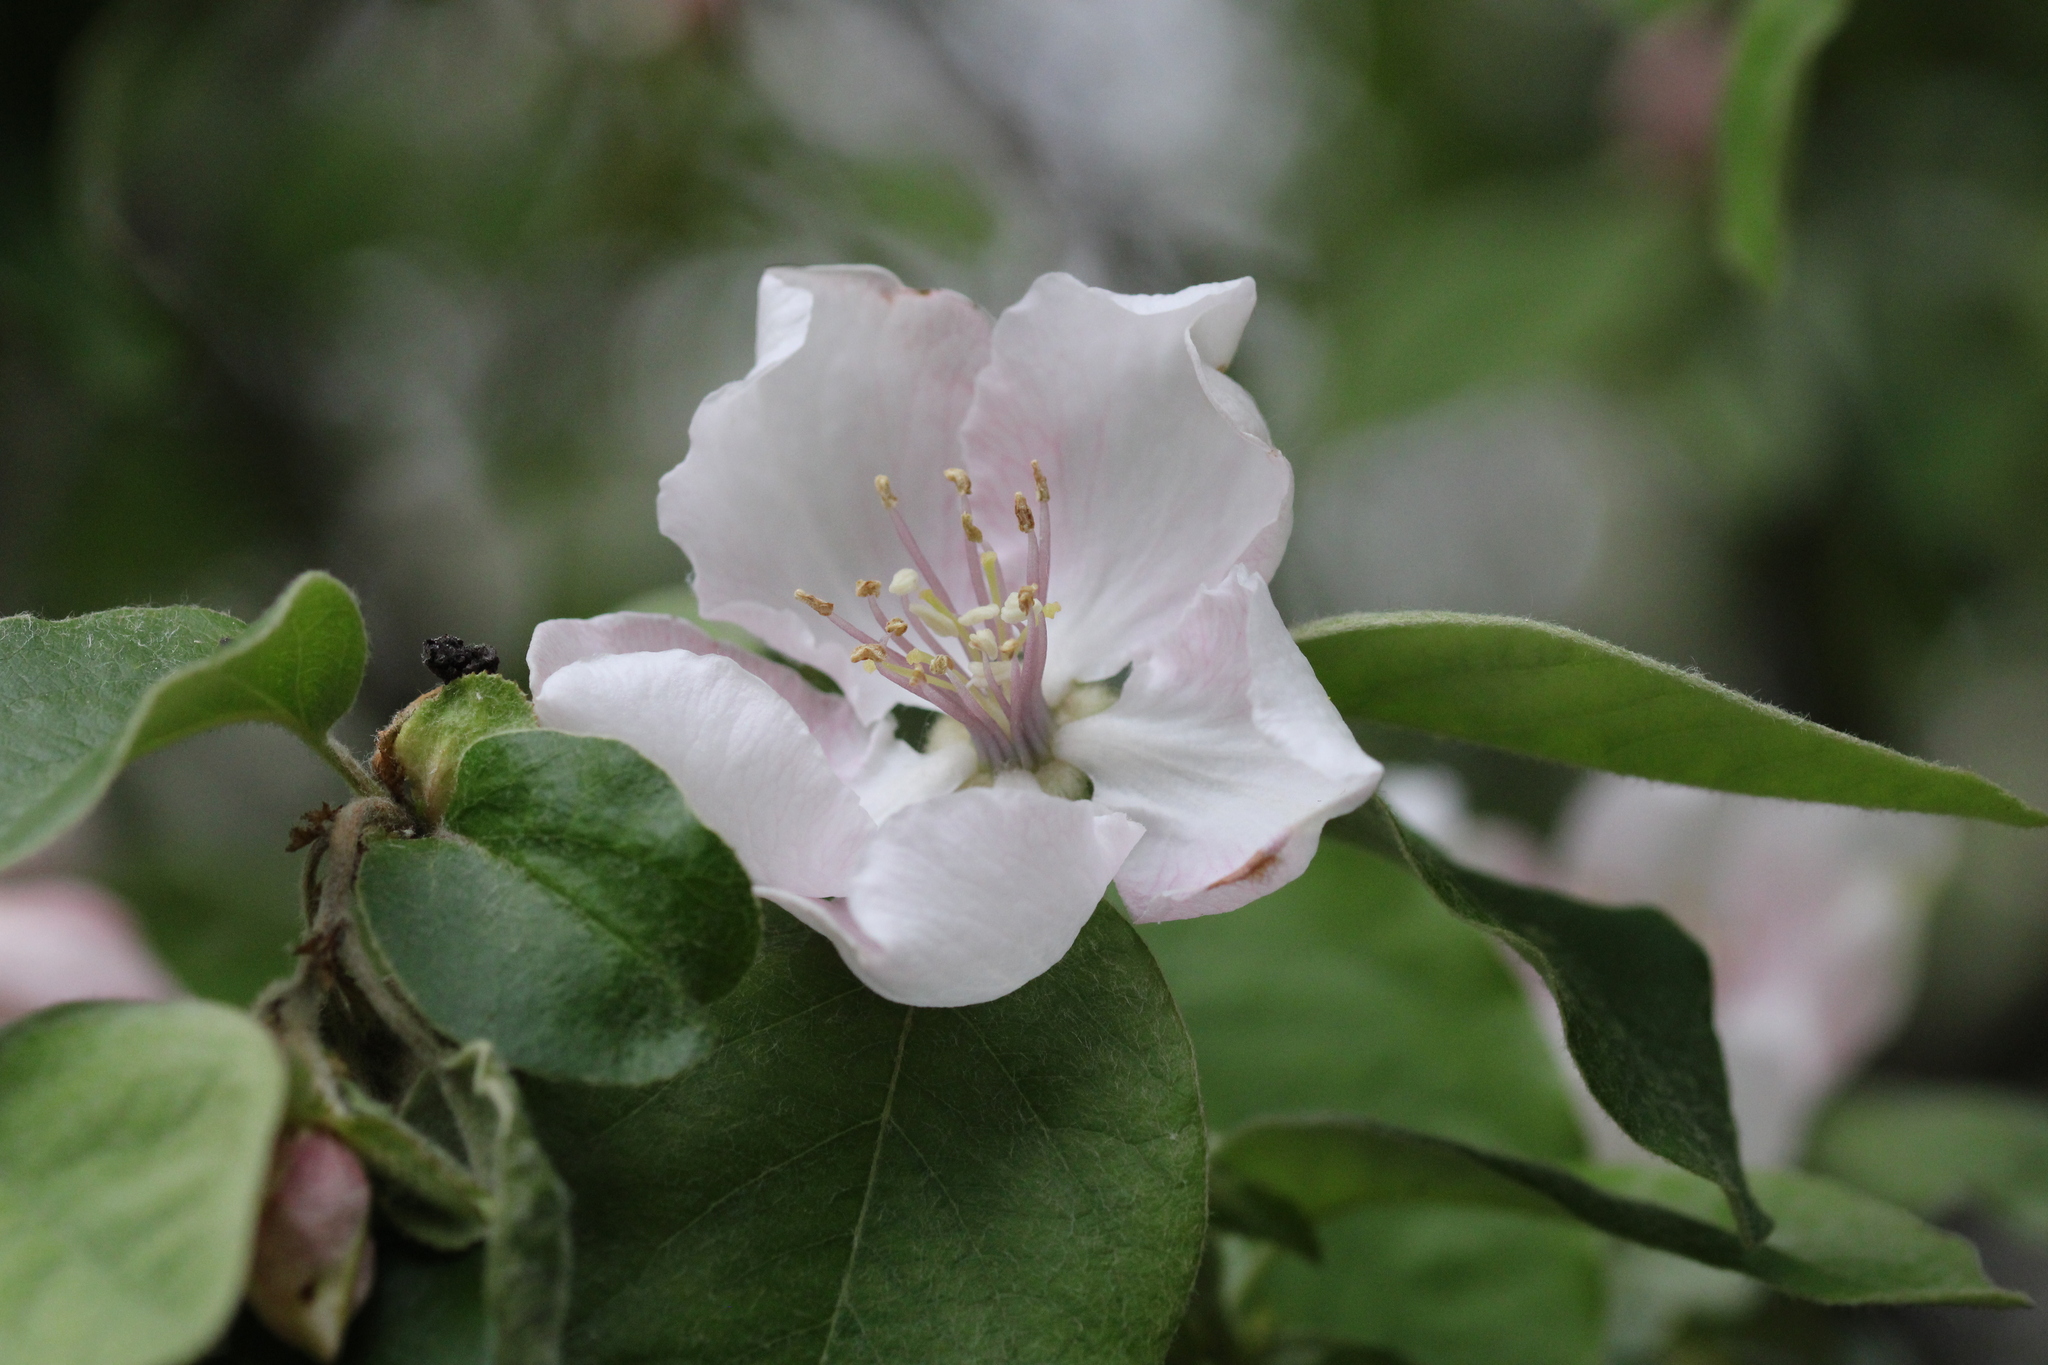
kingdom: Plantae
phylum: Tracheophyta
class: Magnoliopsida
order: Rosales
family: Rosaceae
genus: Cydonia
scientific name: Cydonia oblonga
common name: Quince
